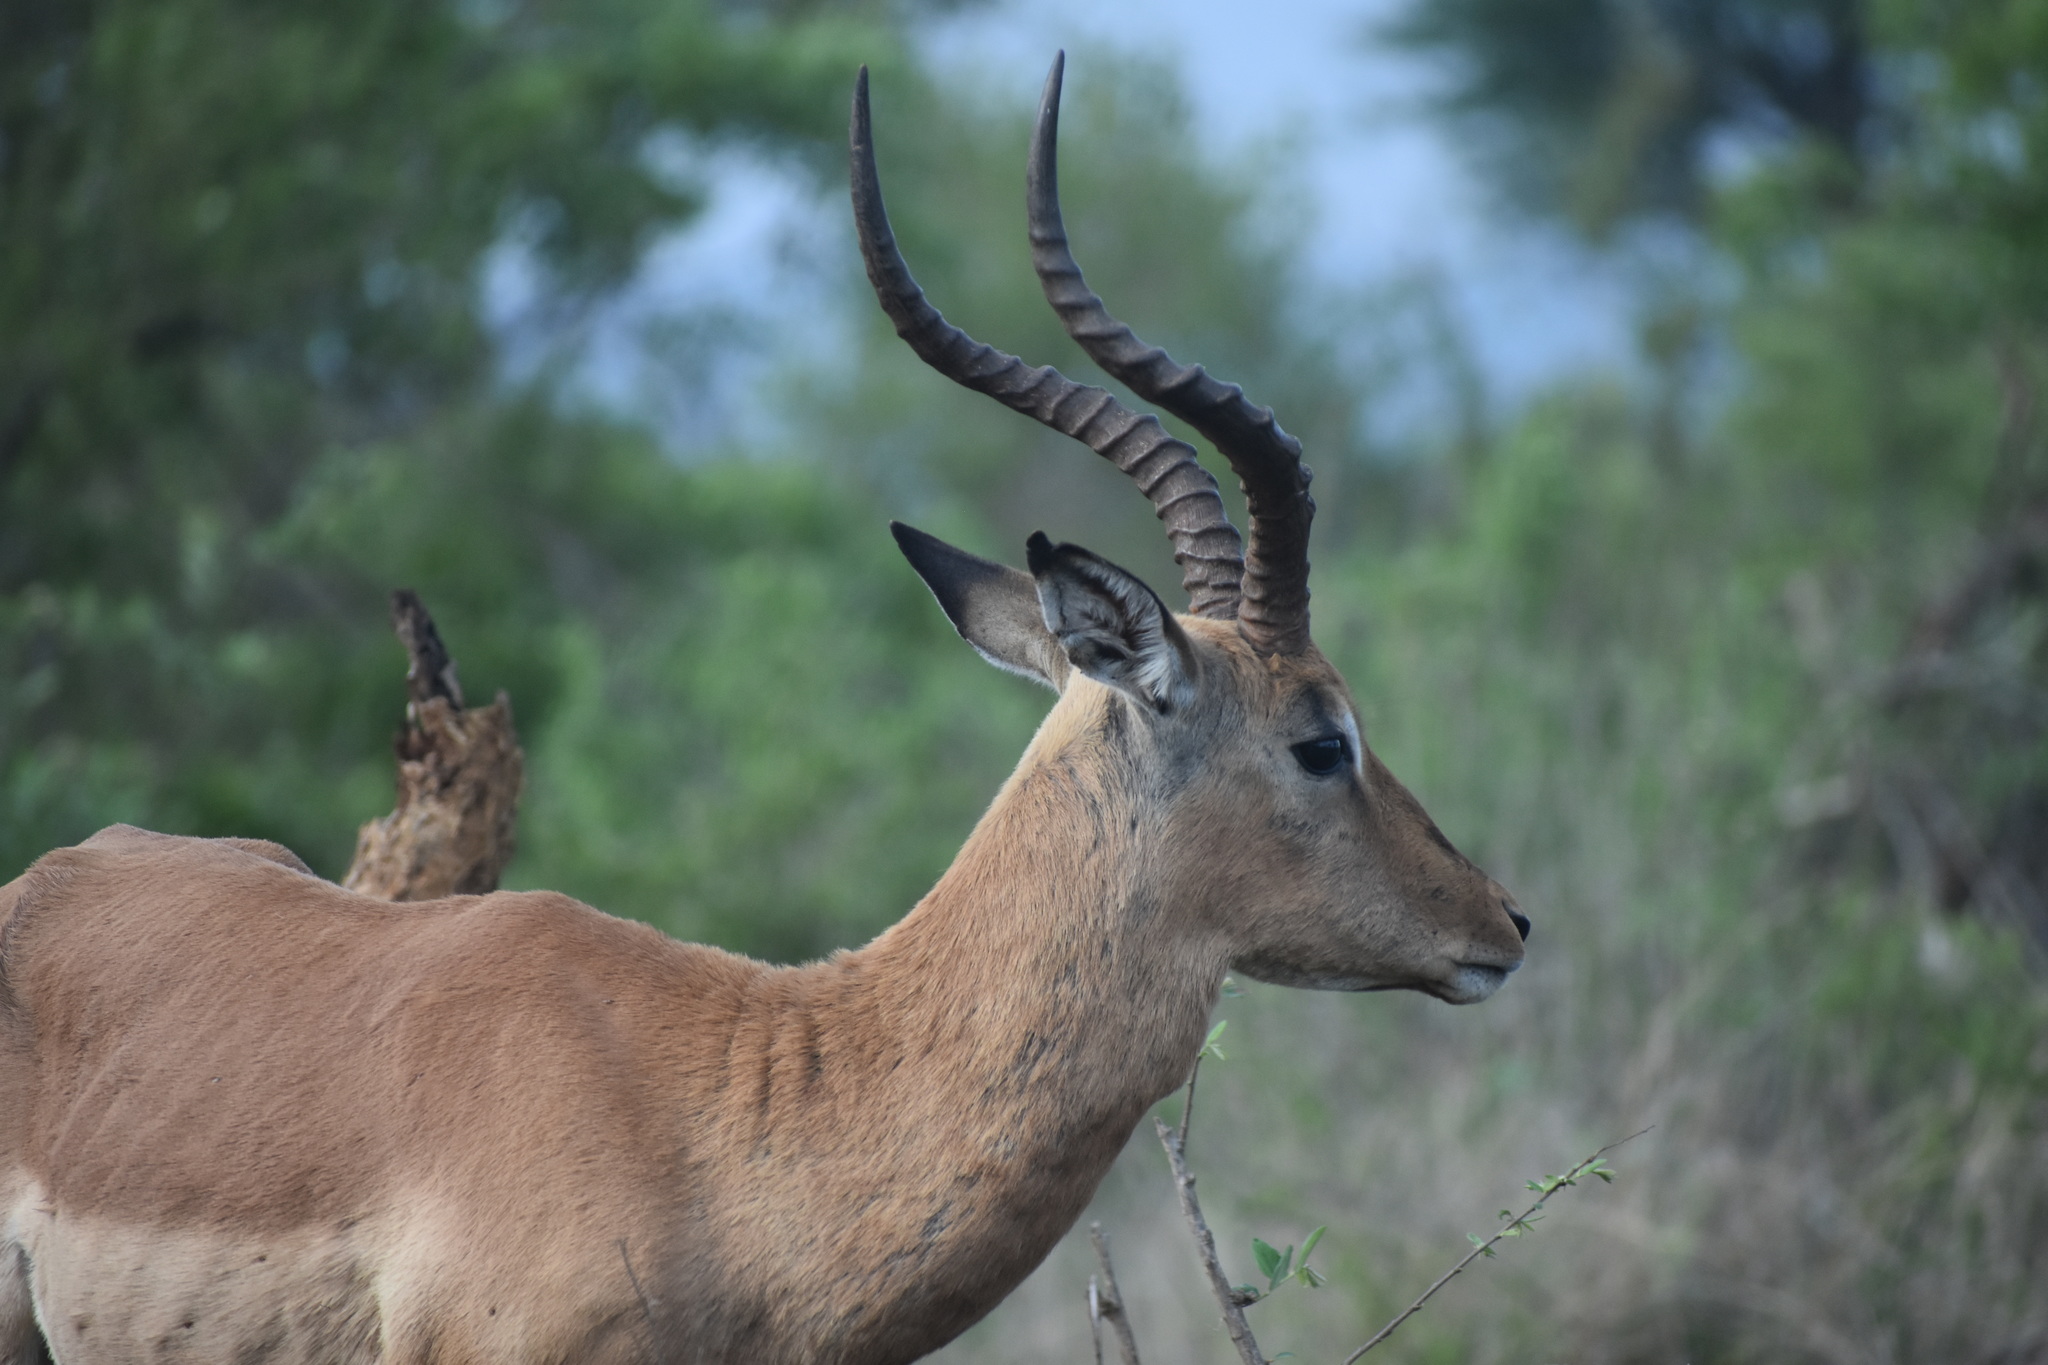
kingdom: Animalia
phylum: Chordata
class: Mammalia
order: Artiodactyla
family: Bovidae
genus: Aepyceros
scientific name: Aepyceros melampus
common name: Impala
